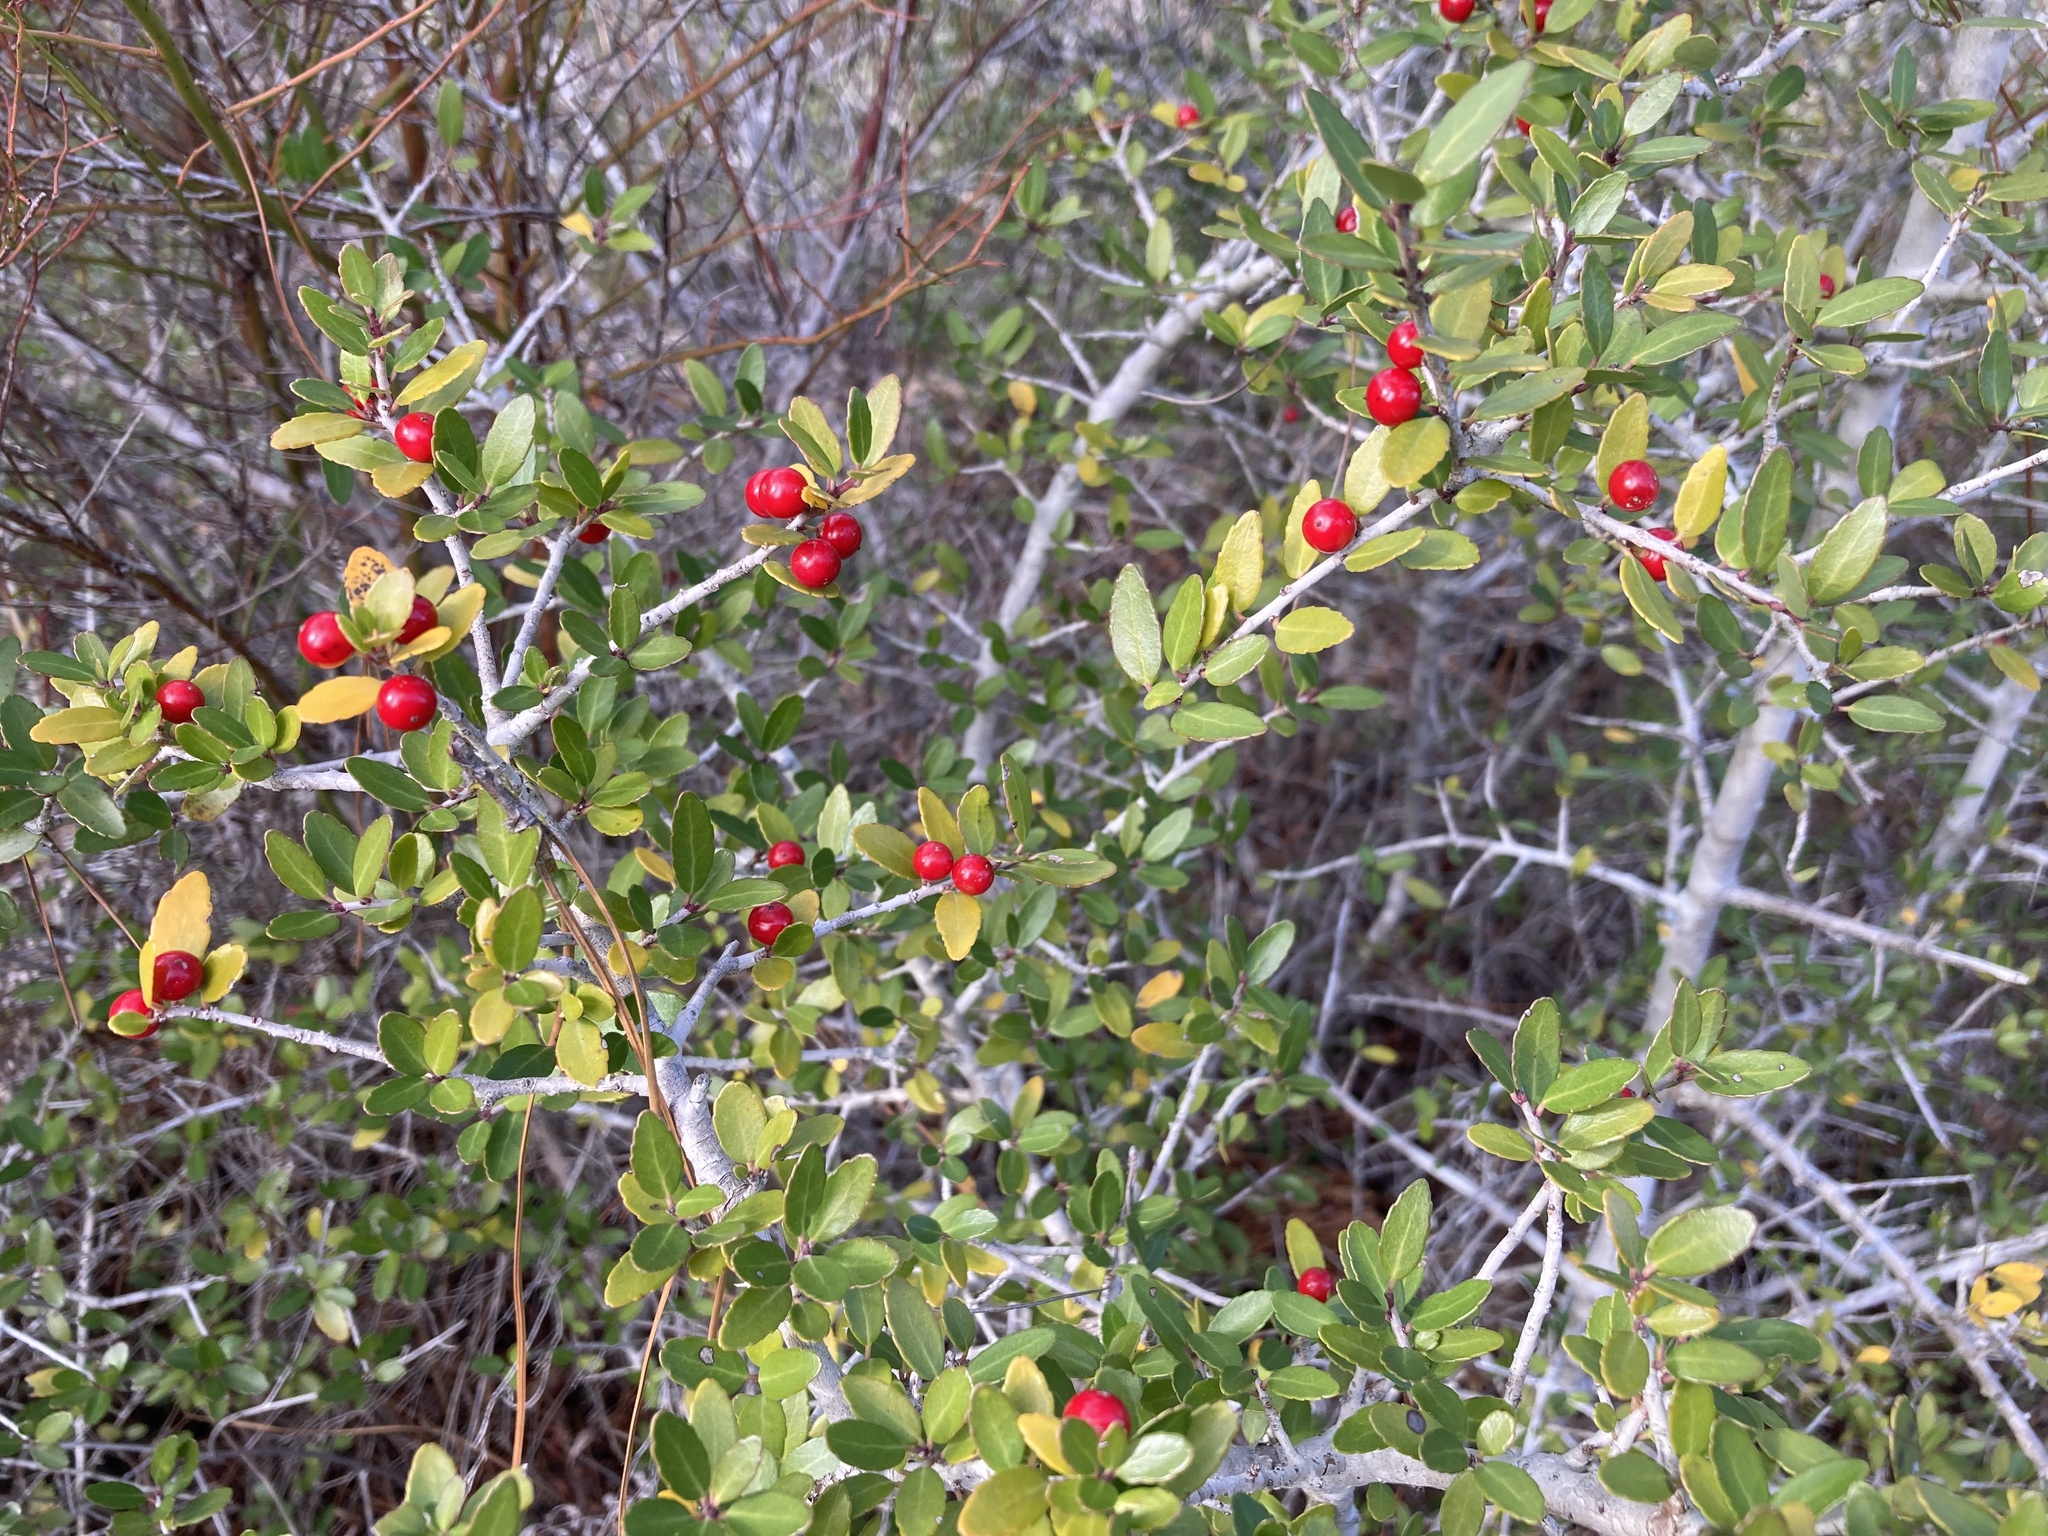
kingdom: Plantae
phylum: Tracheophyta
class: Magnoliopsida
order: Aquifoliales
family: Aquifoliaceae
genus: Ilex
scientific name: Ilex vomitoria
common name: Yaupon holly
